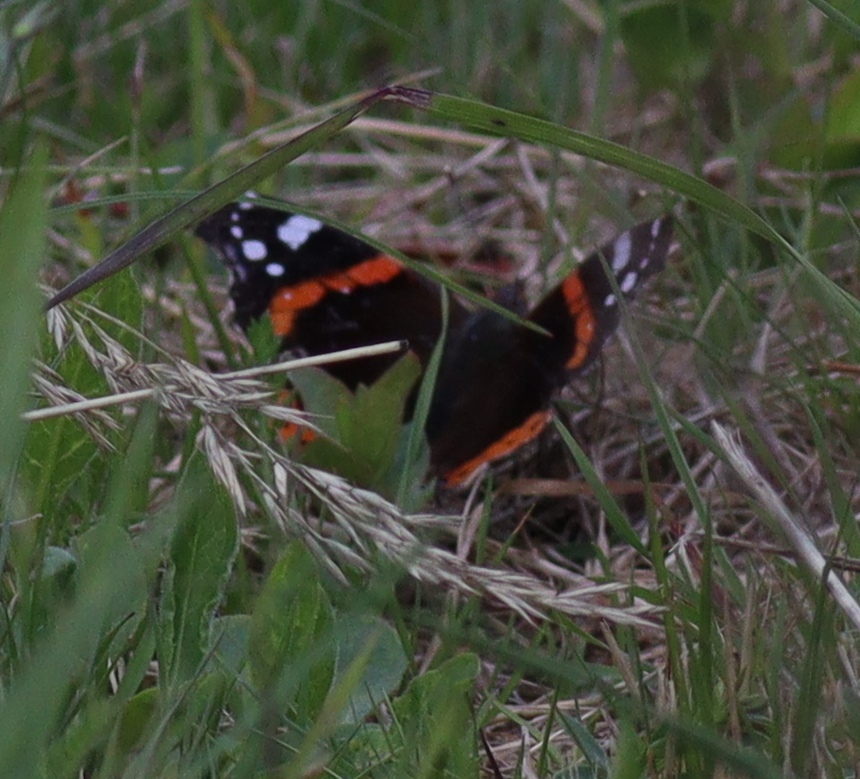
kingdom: Animalia
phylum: Arthropoda
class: Insecta
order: Lepidoptera
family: Nymphalidae
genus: Vanessa
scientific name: Vanessa atalanta
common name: Red admiral
